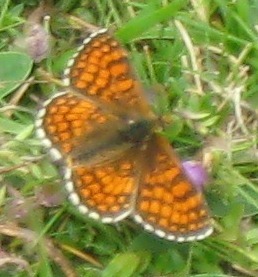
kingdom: Animalia
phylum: Arthropoda
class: Insecta
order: Lepidoptera
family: Nymphalidae
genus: Mellicta
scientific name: Mellicta parthenoides
